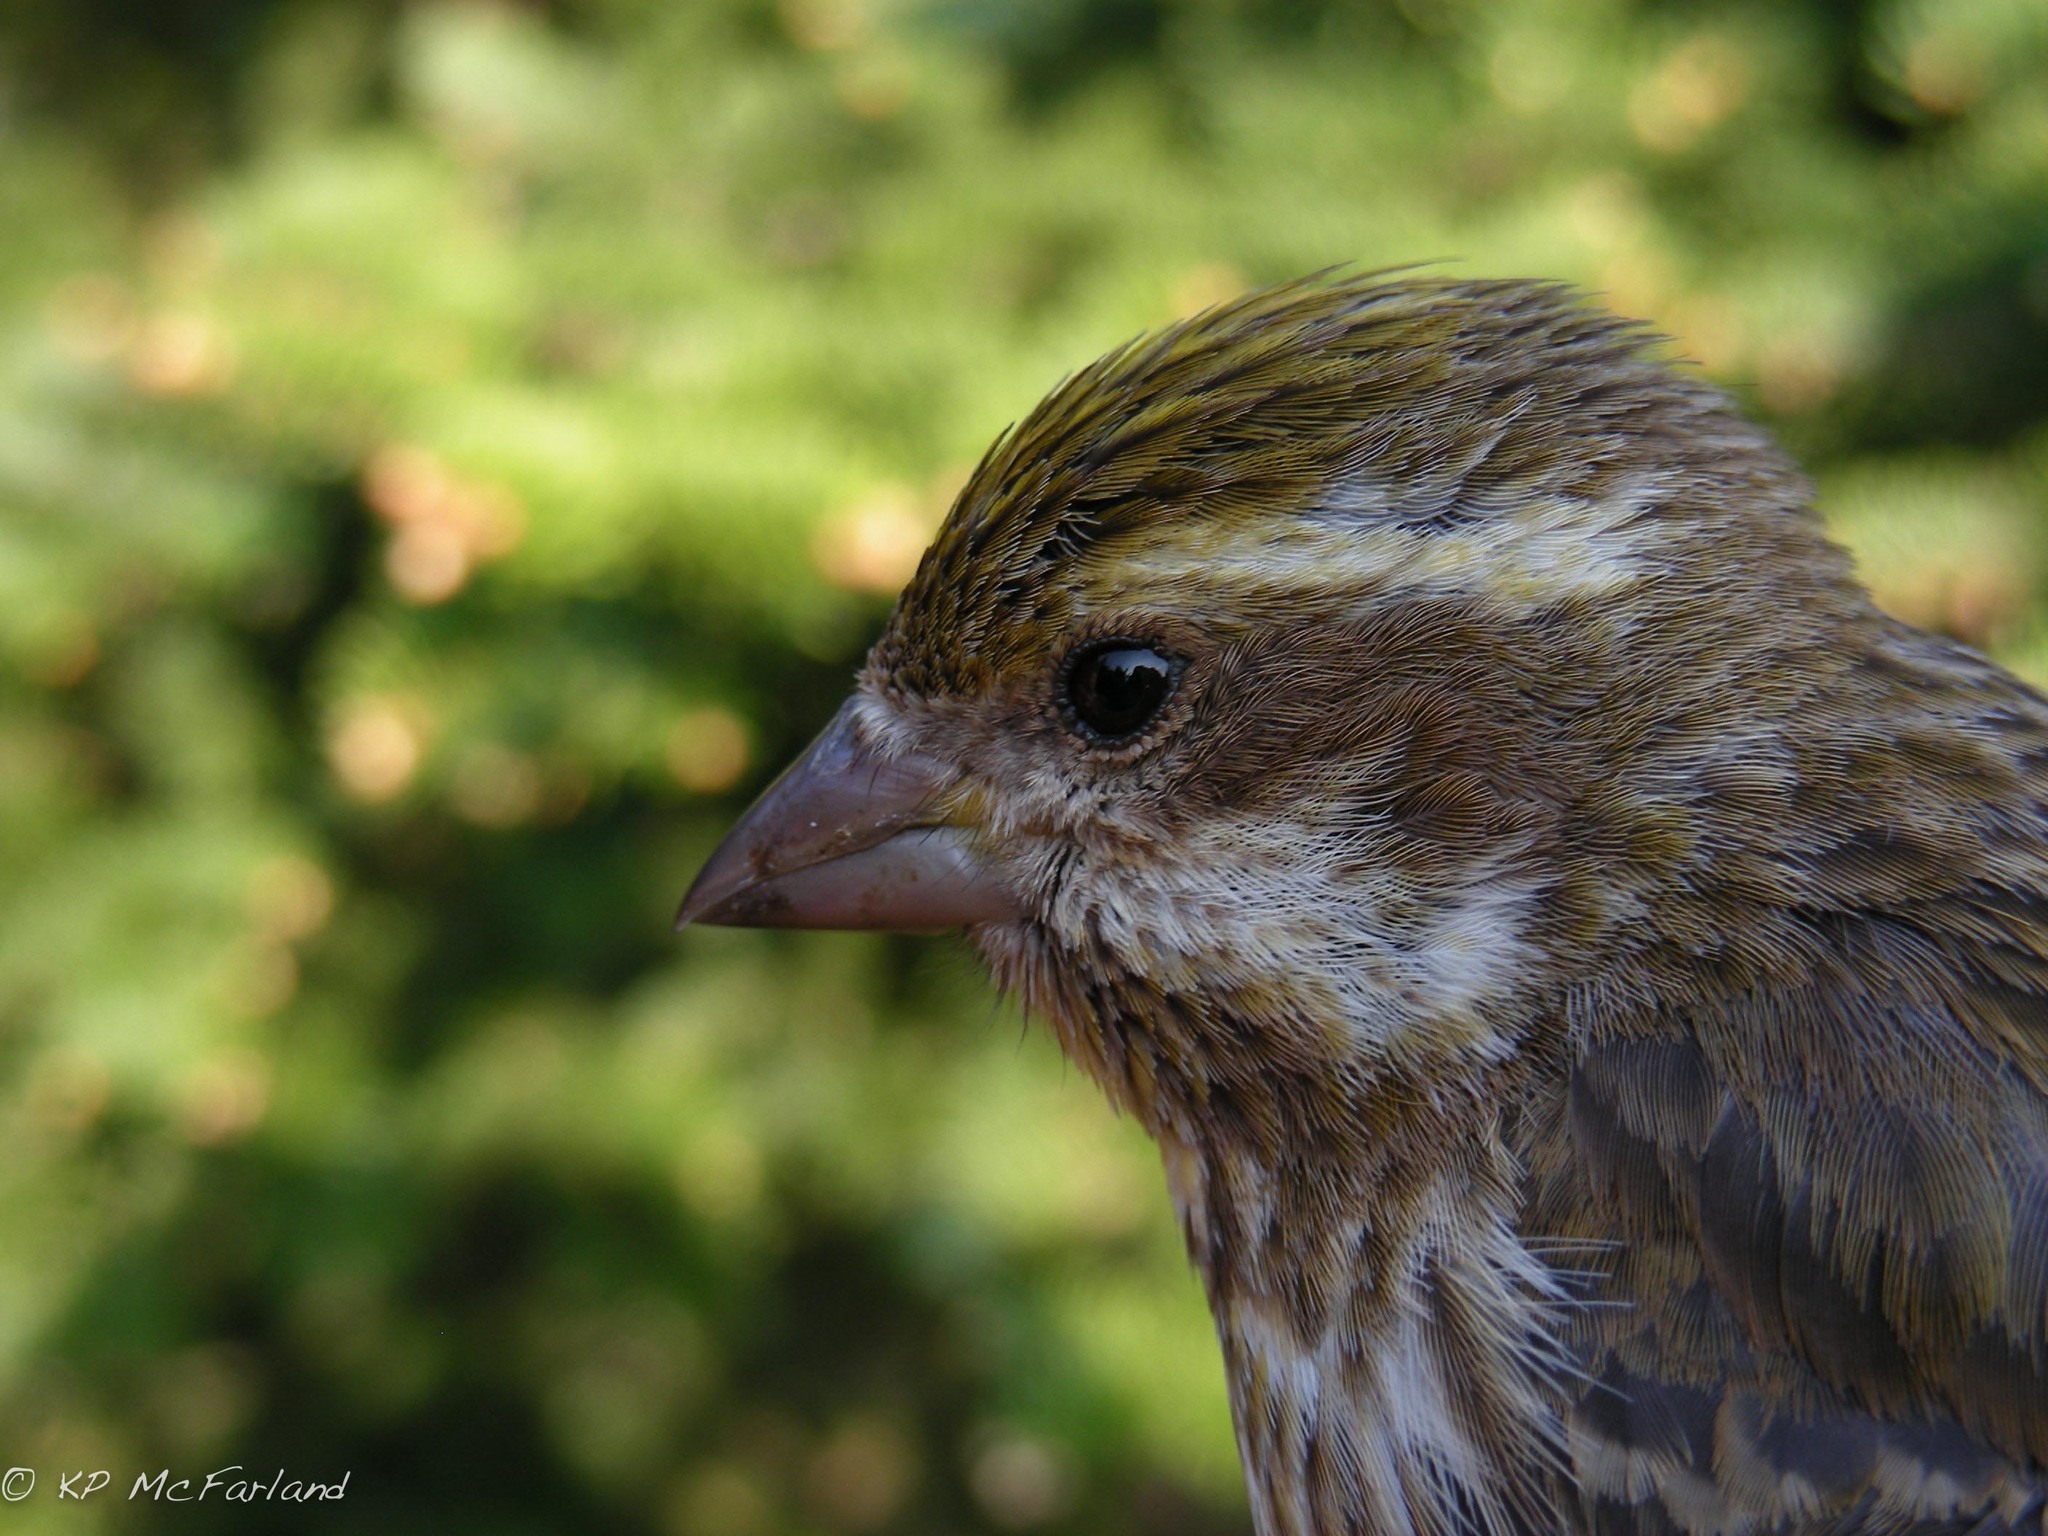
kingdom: Animalia
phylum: Chordata
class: Aves
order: Passeriformes
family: Fringillidae
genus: Haemorhous
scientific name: Haemorhous purpureus
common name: Purple finch
